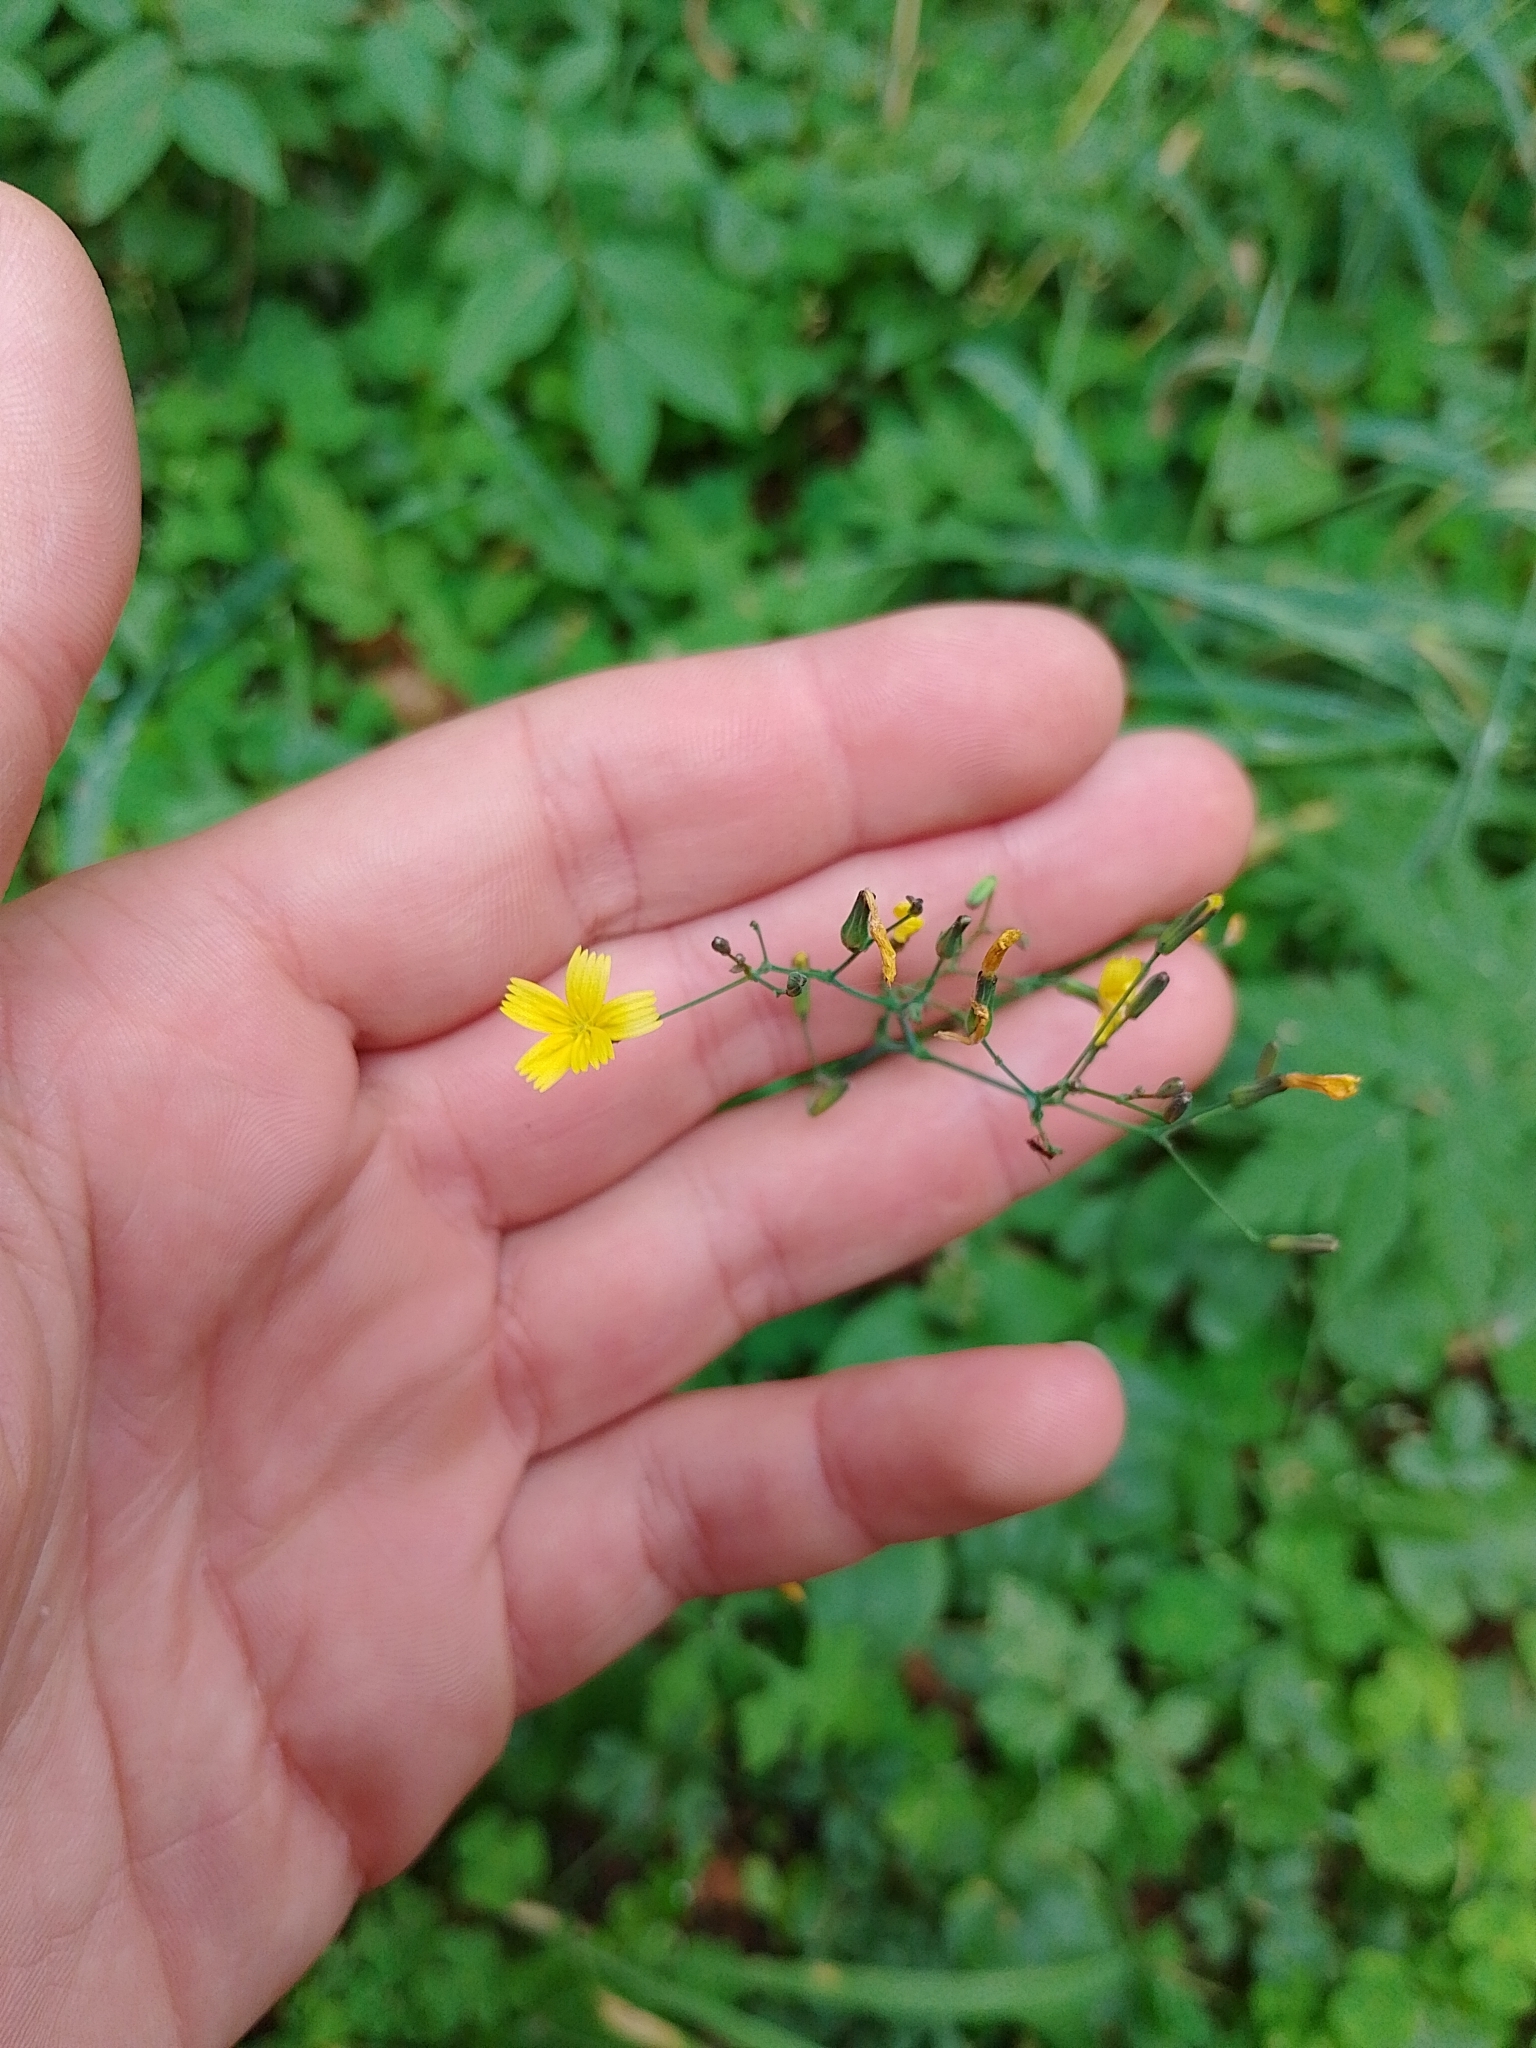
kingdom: Plantae
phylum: Tracheophyta
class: Magnoliopsida
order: Asterales
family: Asteraceae
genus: Mycelis
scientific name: Mycelis muralis
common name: Wall lettuce
